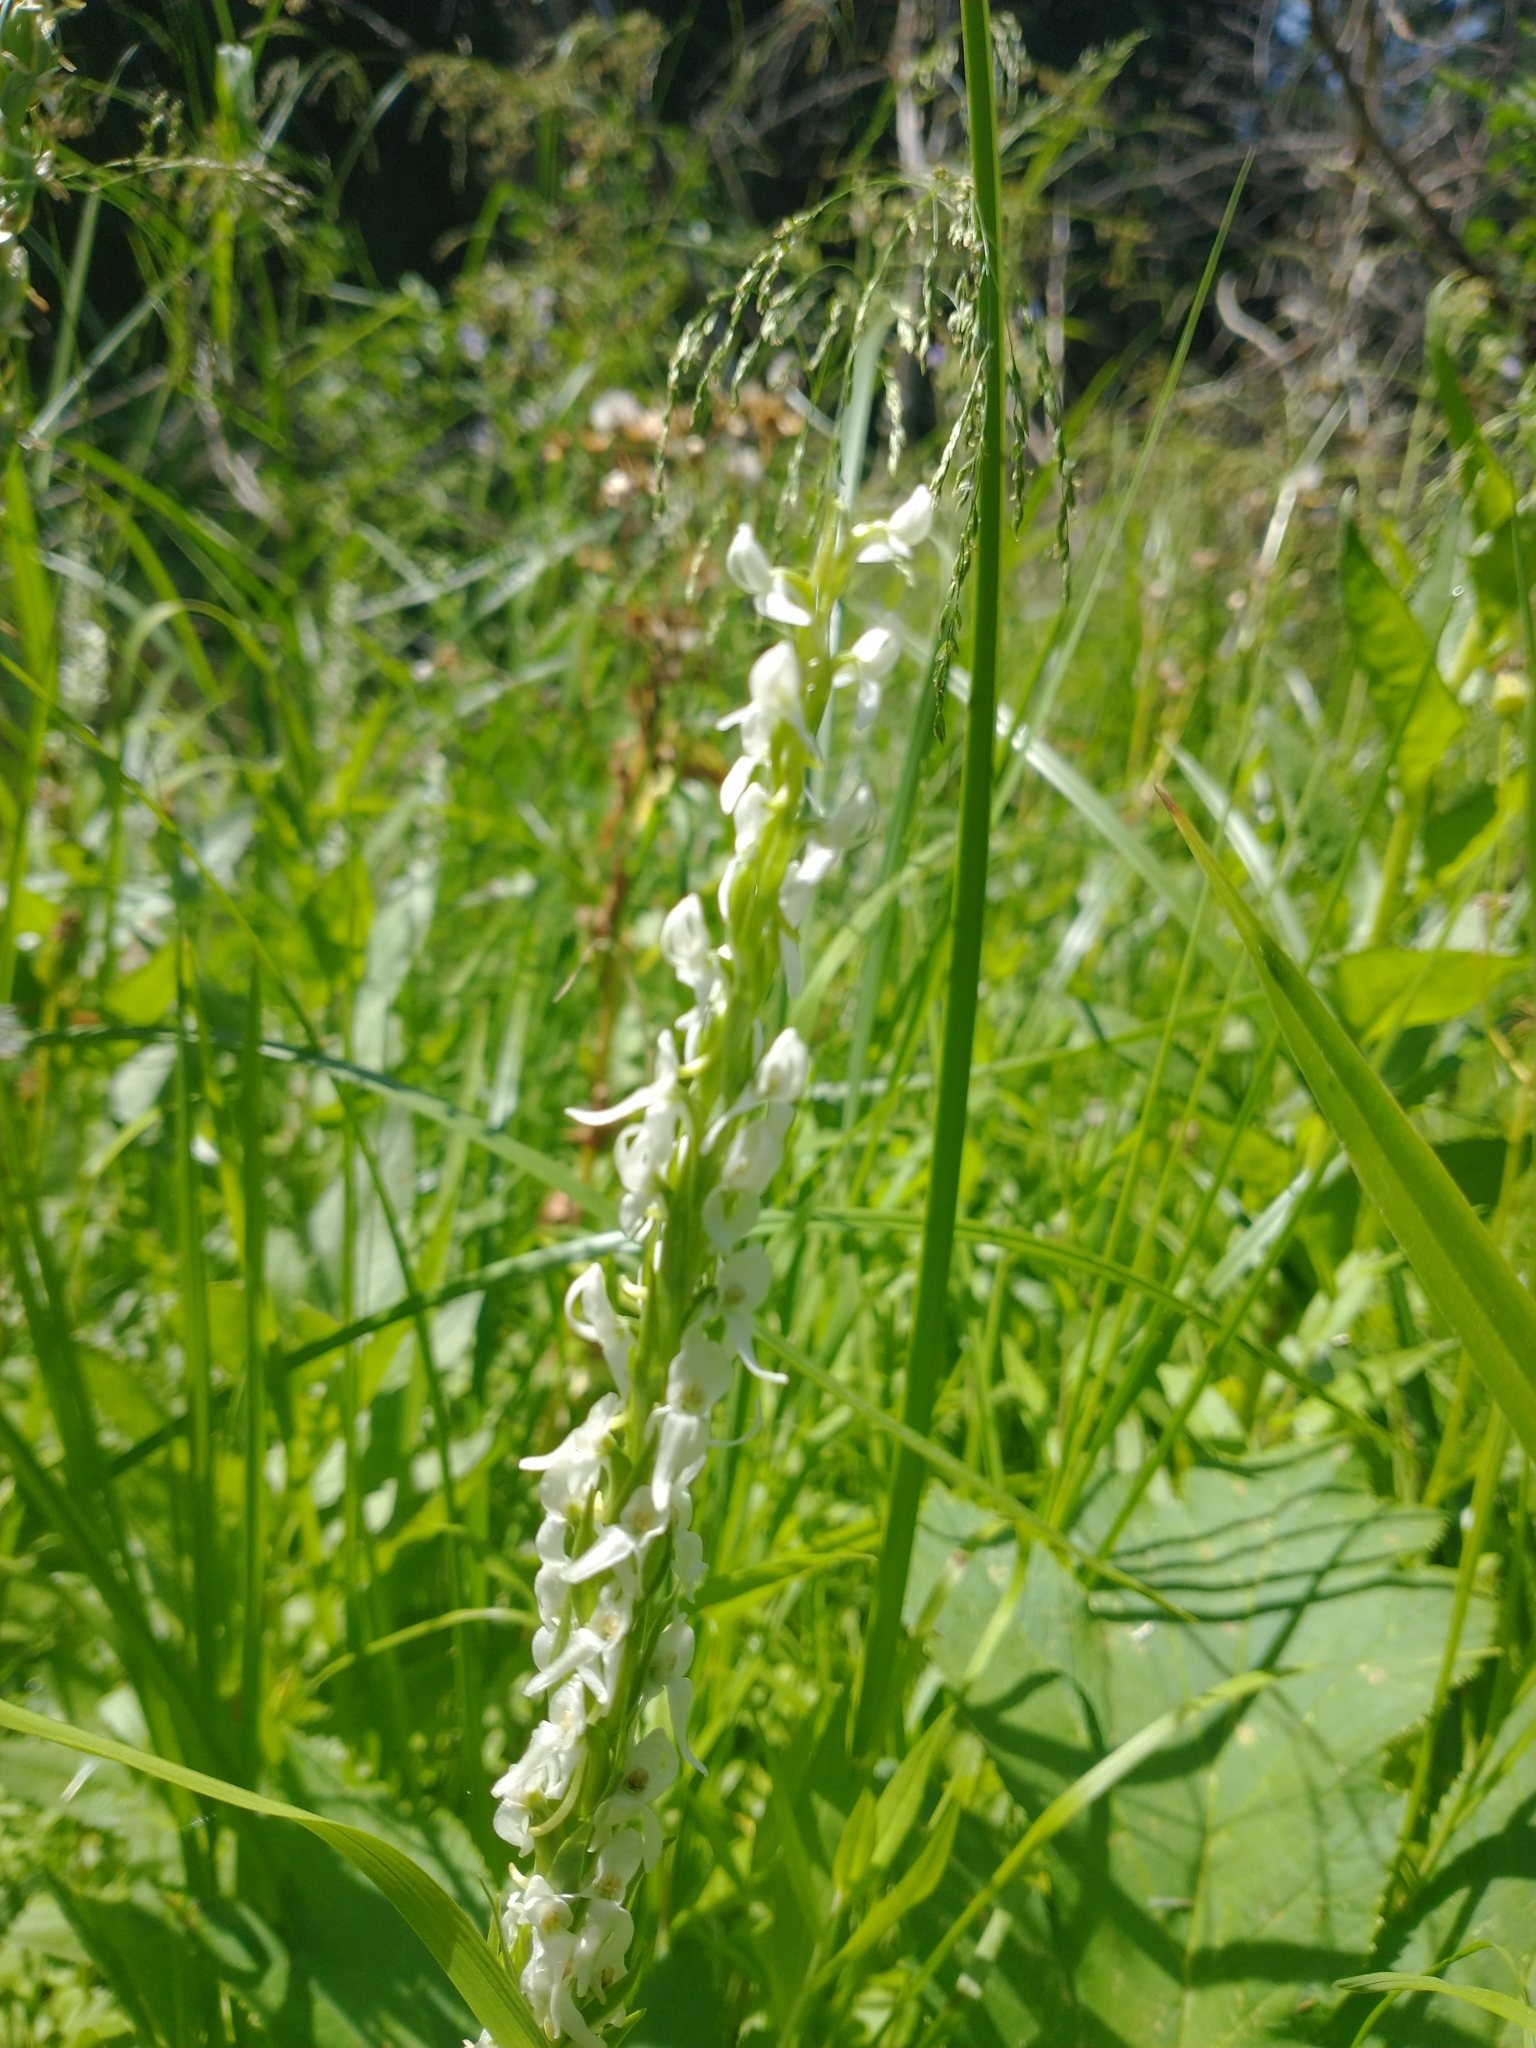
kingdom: Plantae
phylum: Tracheophyta
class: Liliopsida
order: Asparagales
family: Orchidaceae
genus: Platanthera
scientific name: Platanthera dilatata
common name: Bog candles
